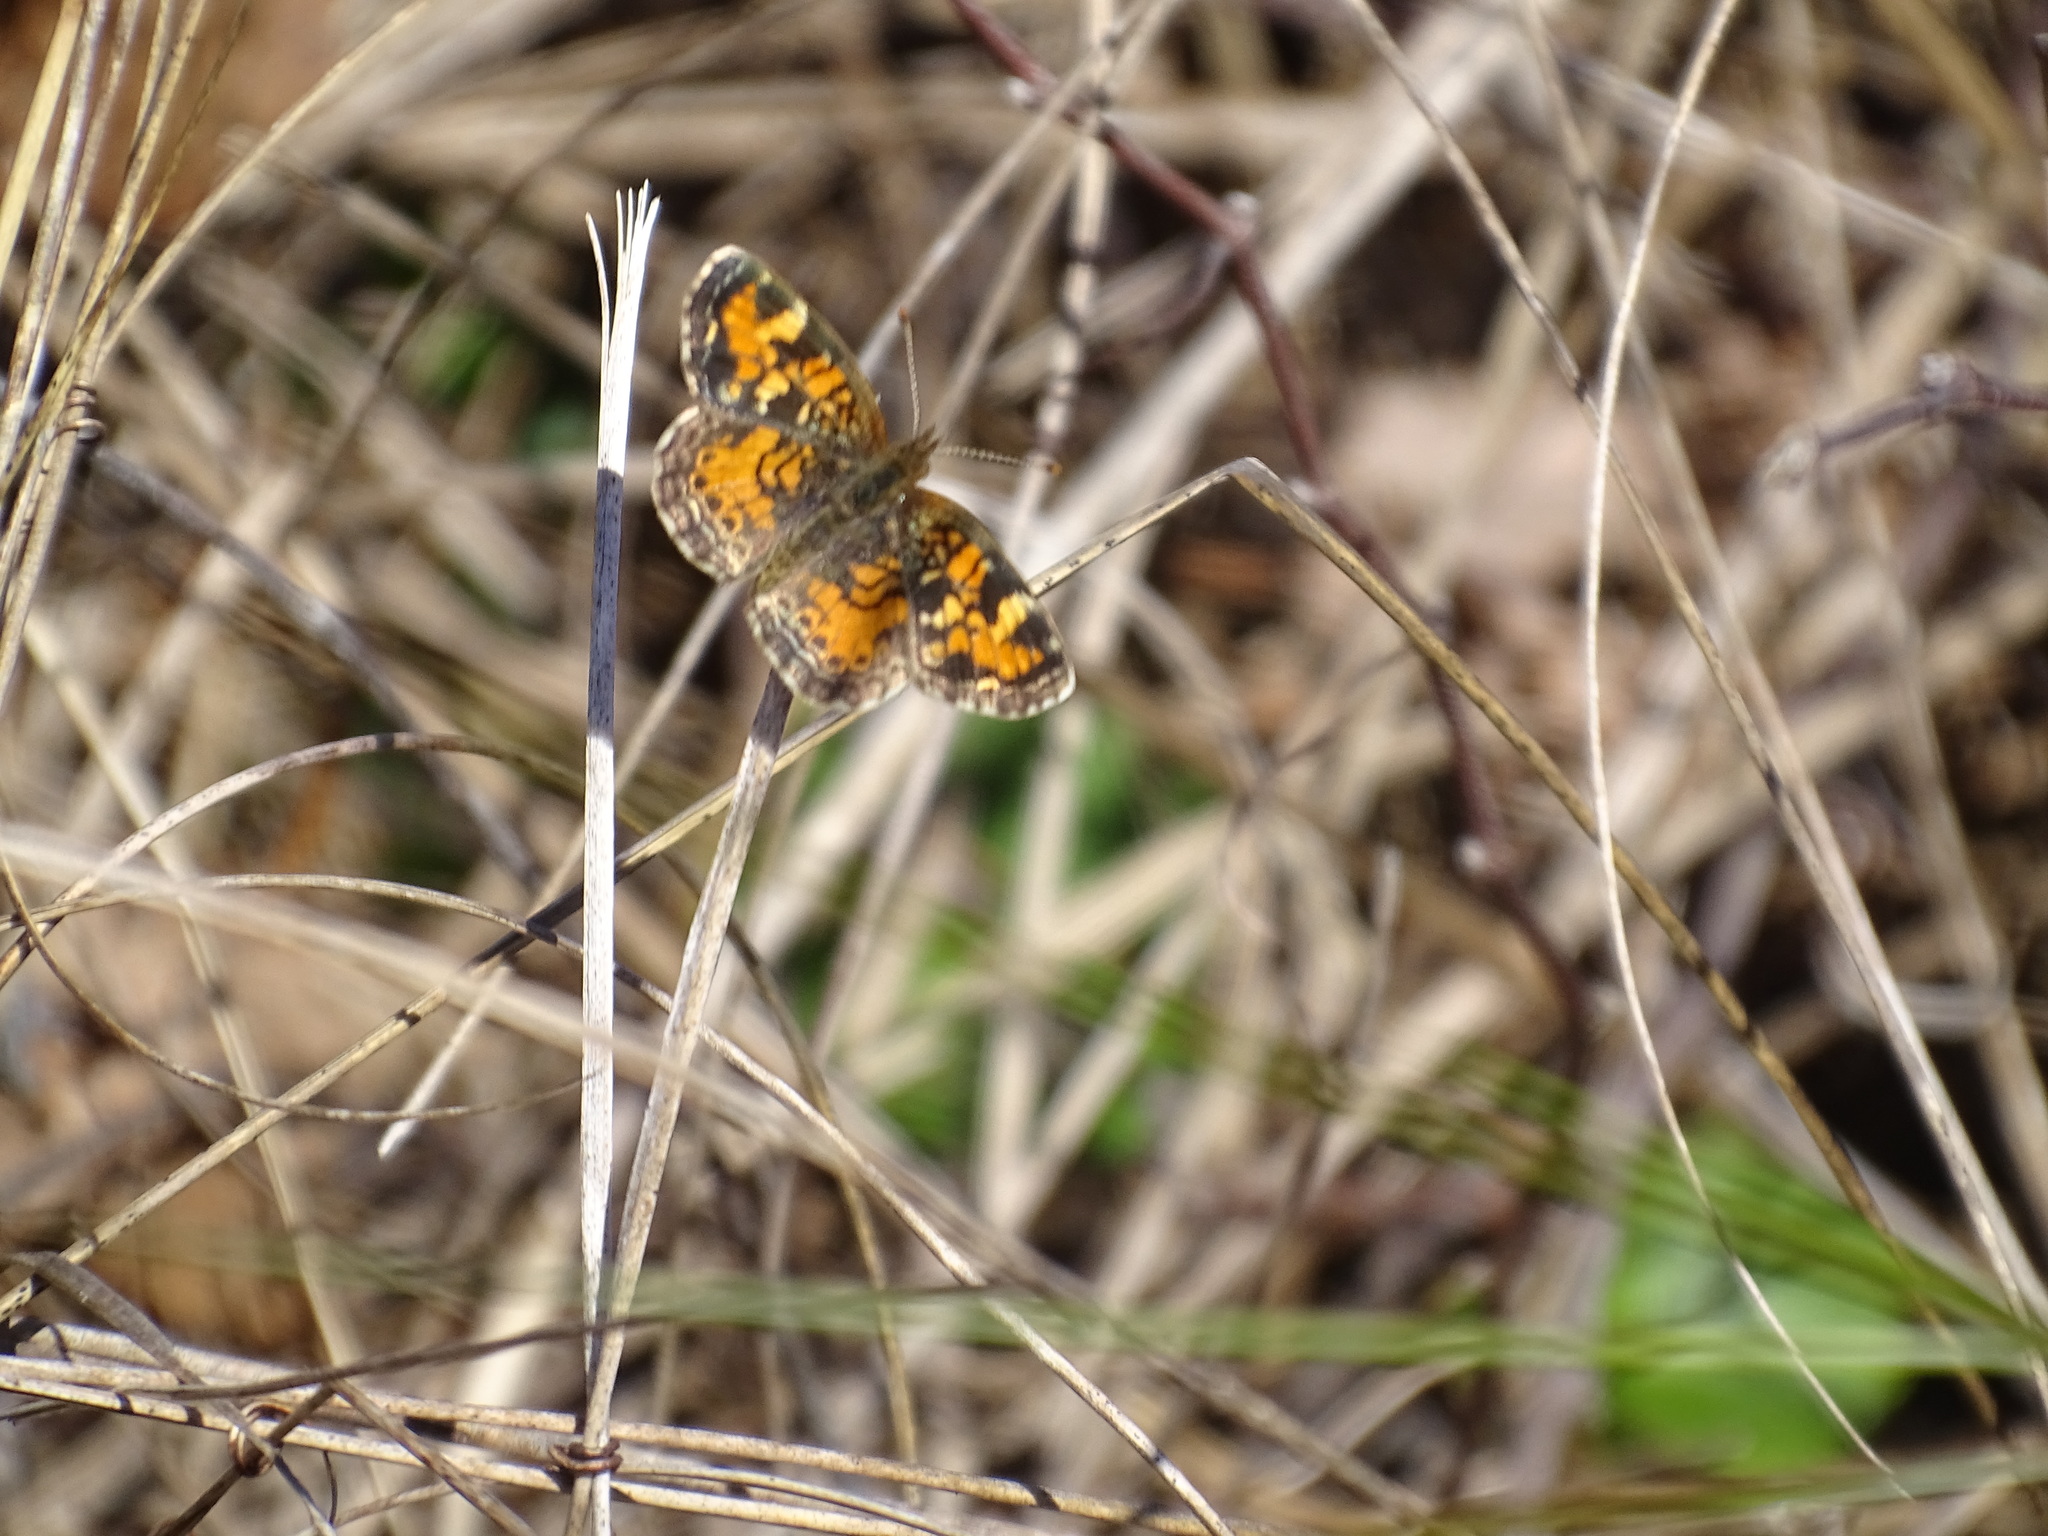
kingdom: Animalia
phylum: Arthropoda
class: Insecta
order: Lepidoptera
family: Nymphalidae
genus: Phyciodes
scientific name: Phyciodes phaon
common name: Phaon crescent
